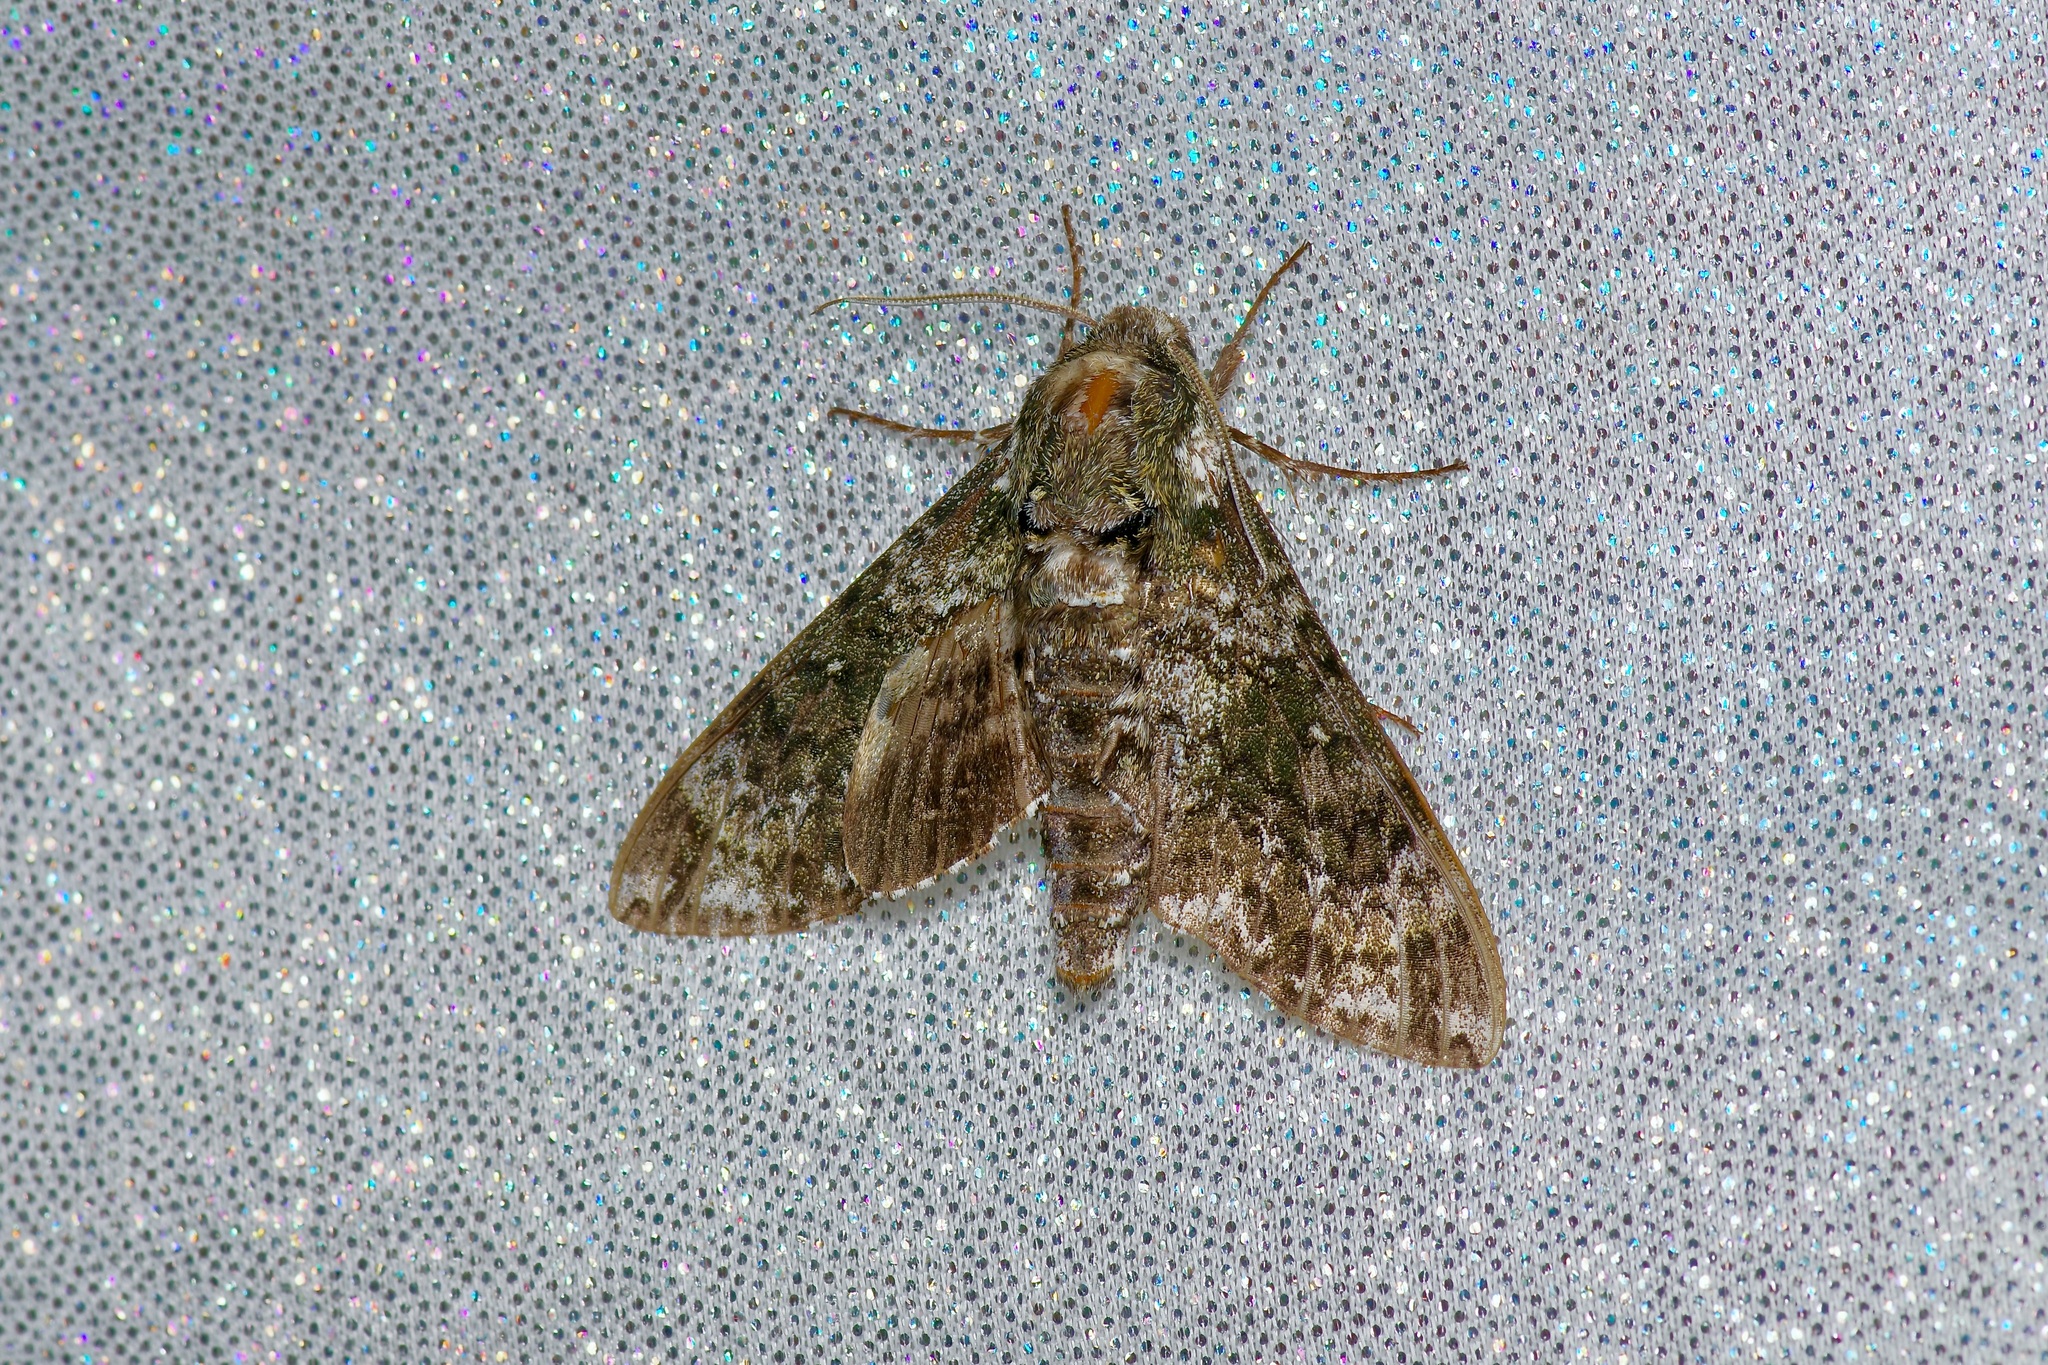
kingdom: Animalia
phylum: Arthropoda
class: Insecta
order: Lepidoptera
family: Sphingidae
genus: Dolba
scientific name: Dolba hyloeus
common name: Pawpaw sphinx
